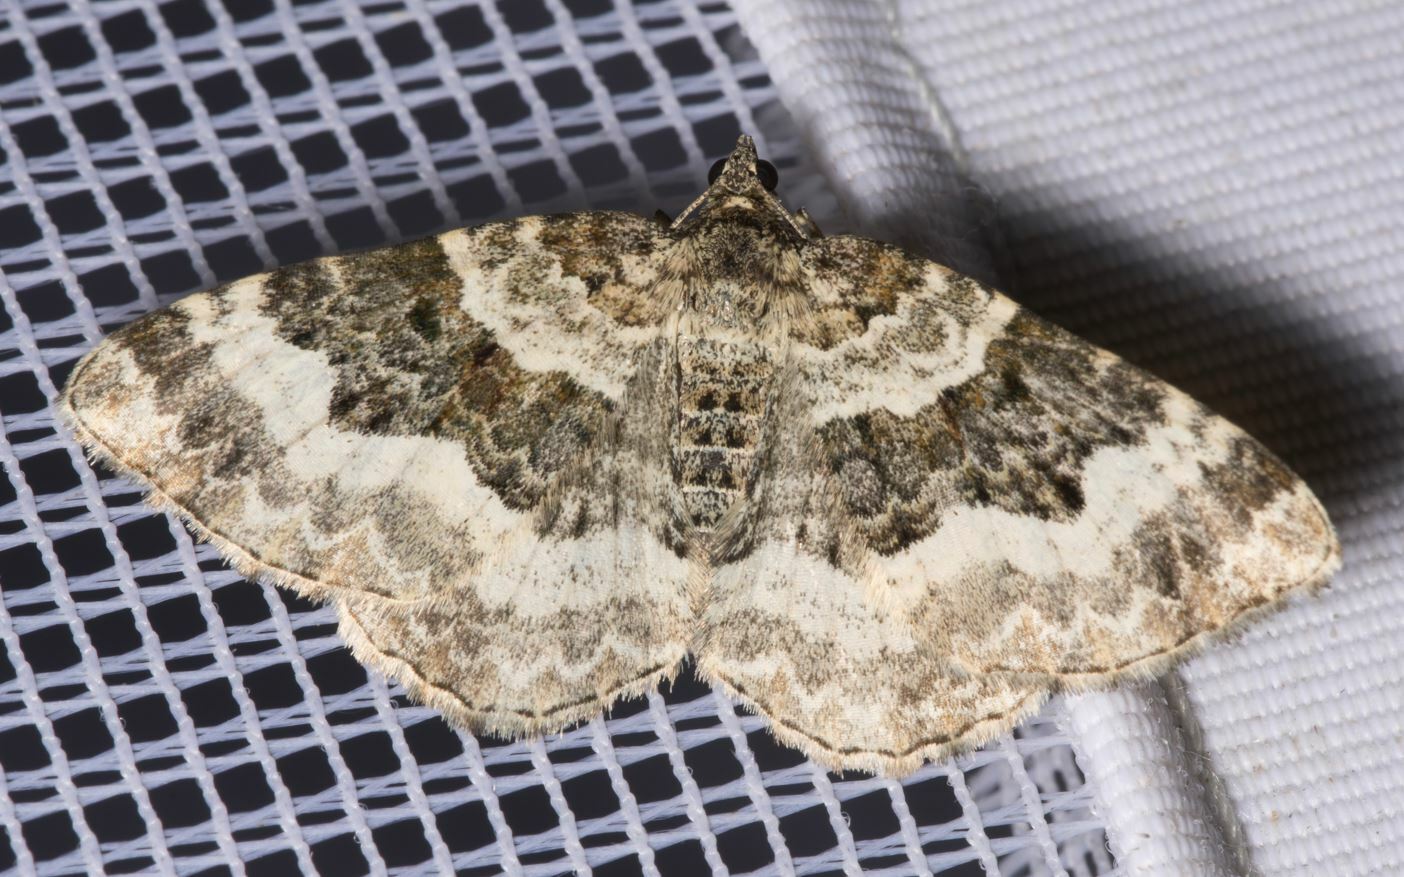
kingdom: Animalia
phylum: Arthropoda
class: Insecta
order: Lepidoptera
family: Geometridae
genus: Epirrhoe
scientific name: Epirrhoe alternata
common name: Common carpet
